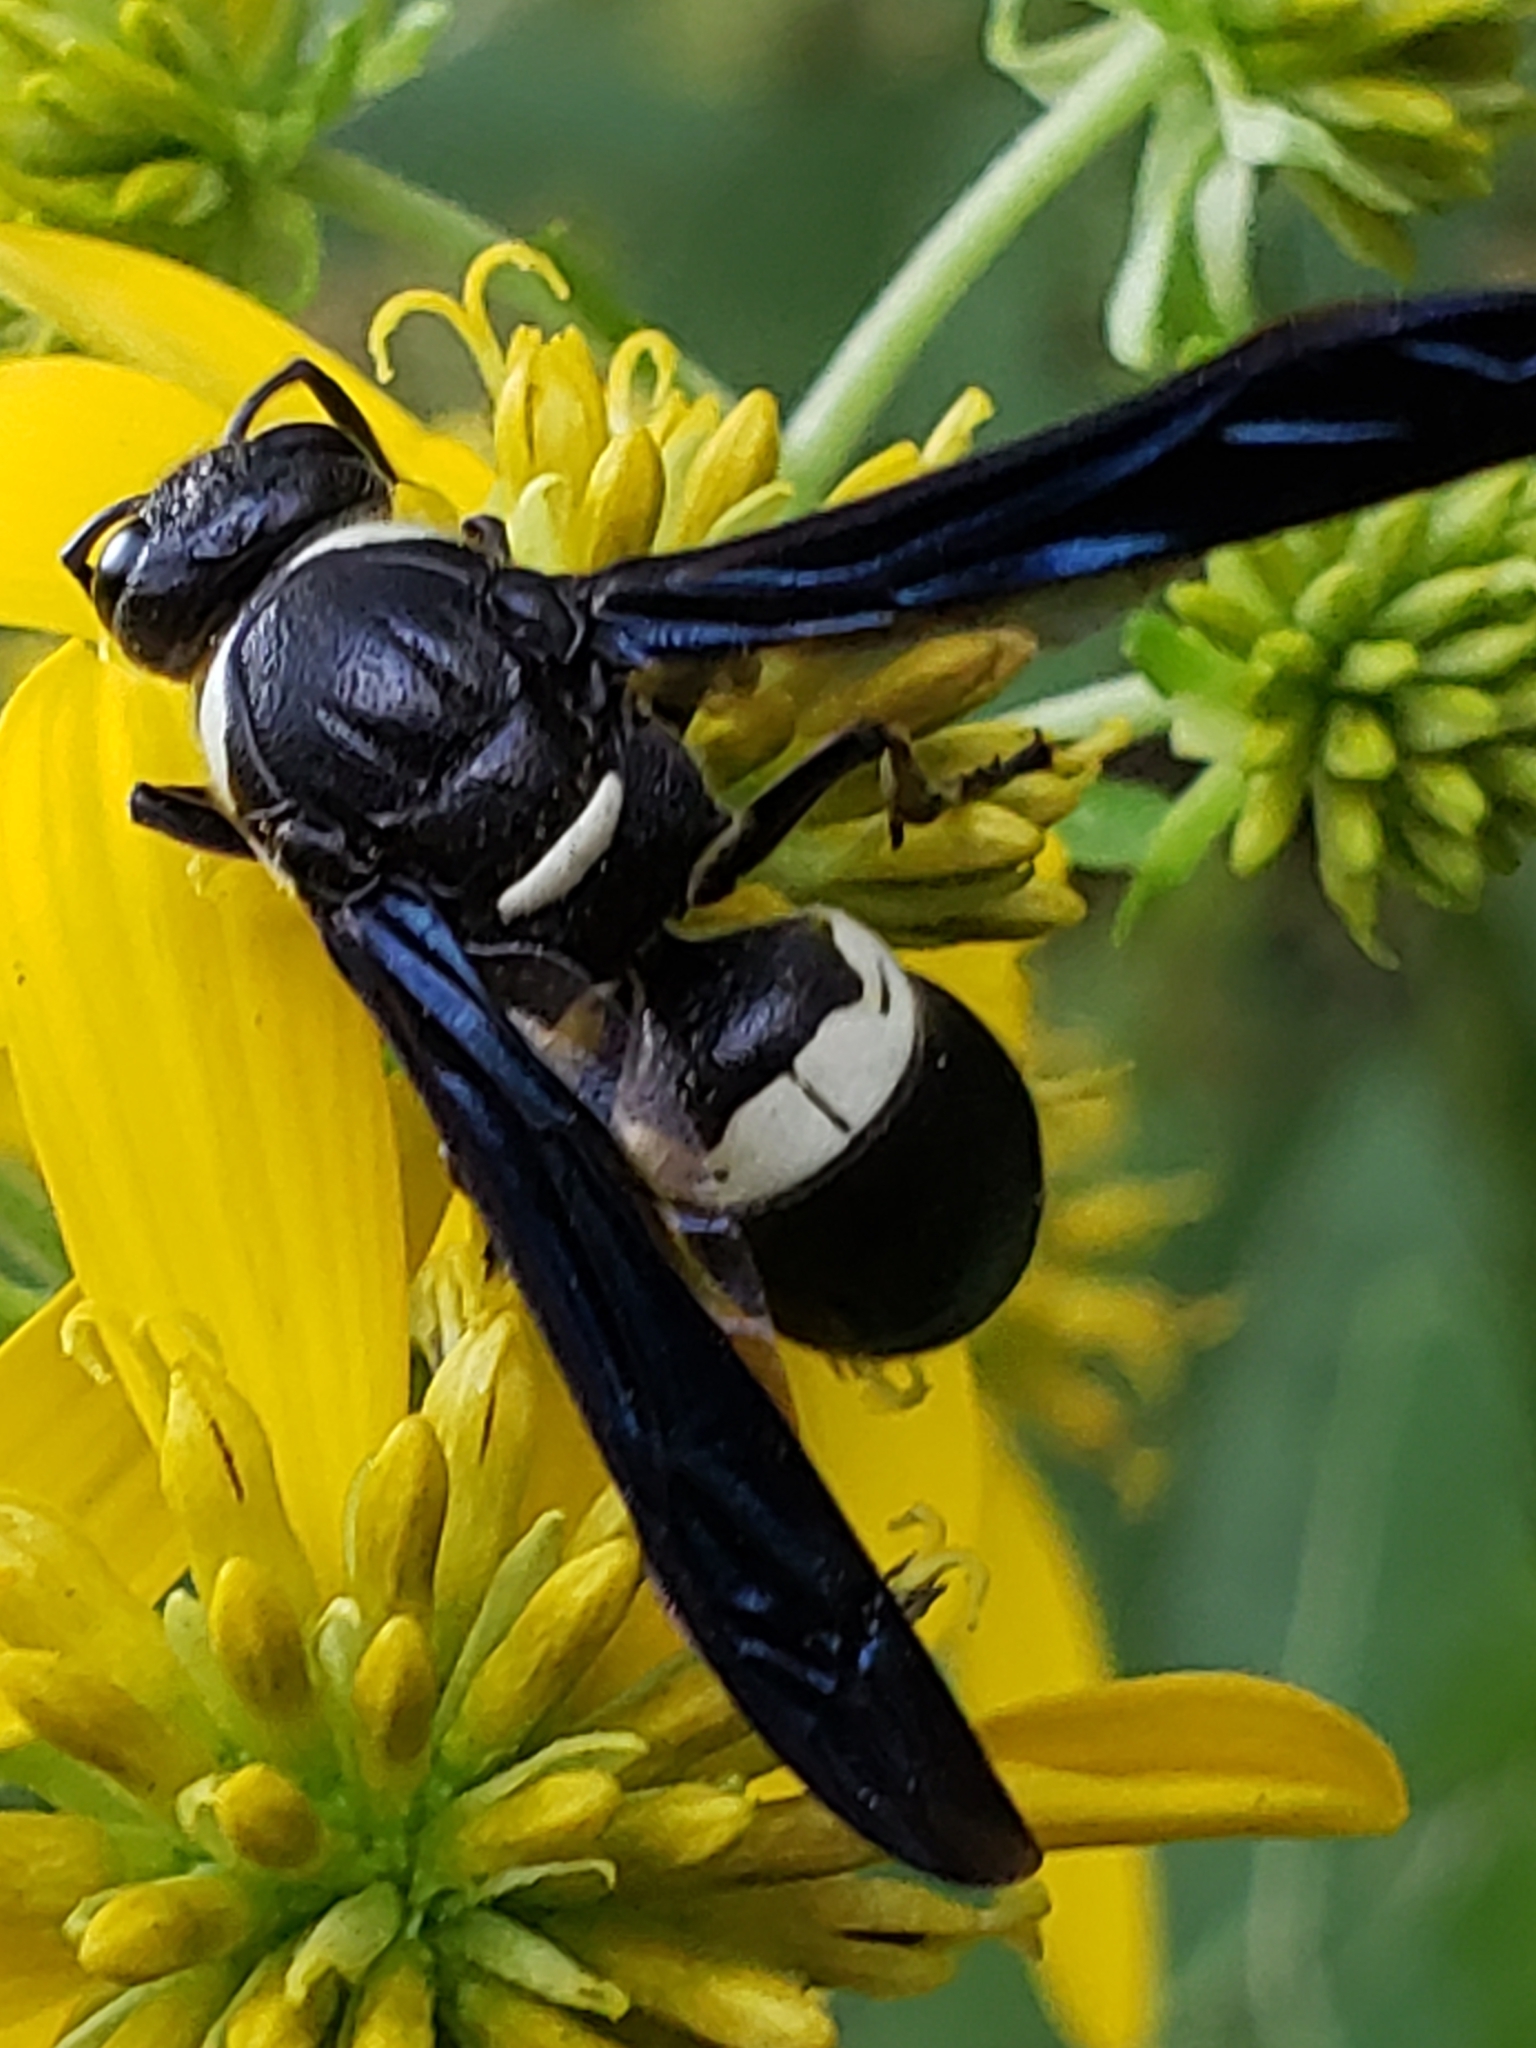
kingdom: Animalia
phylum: Arthropoda
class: Insecta
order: Hymenoptera
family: Eumenidae
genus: Monobia
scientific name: Monobia quadridens
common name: Four-toothed mason wasp
